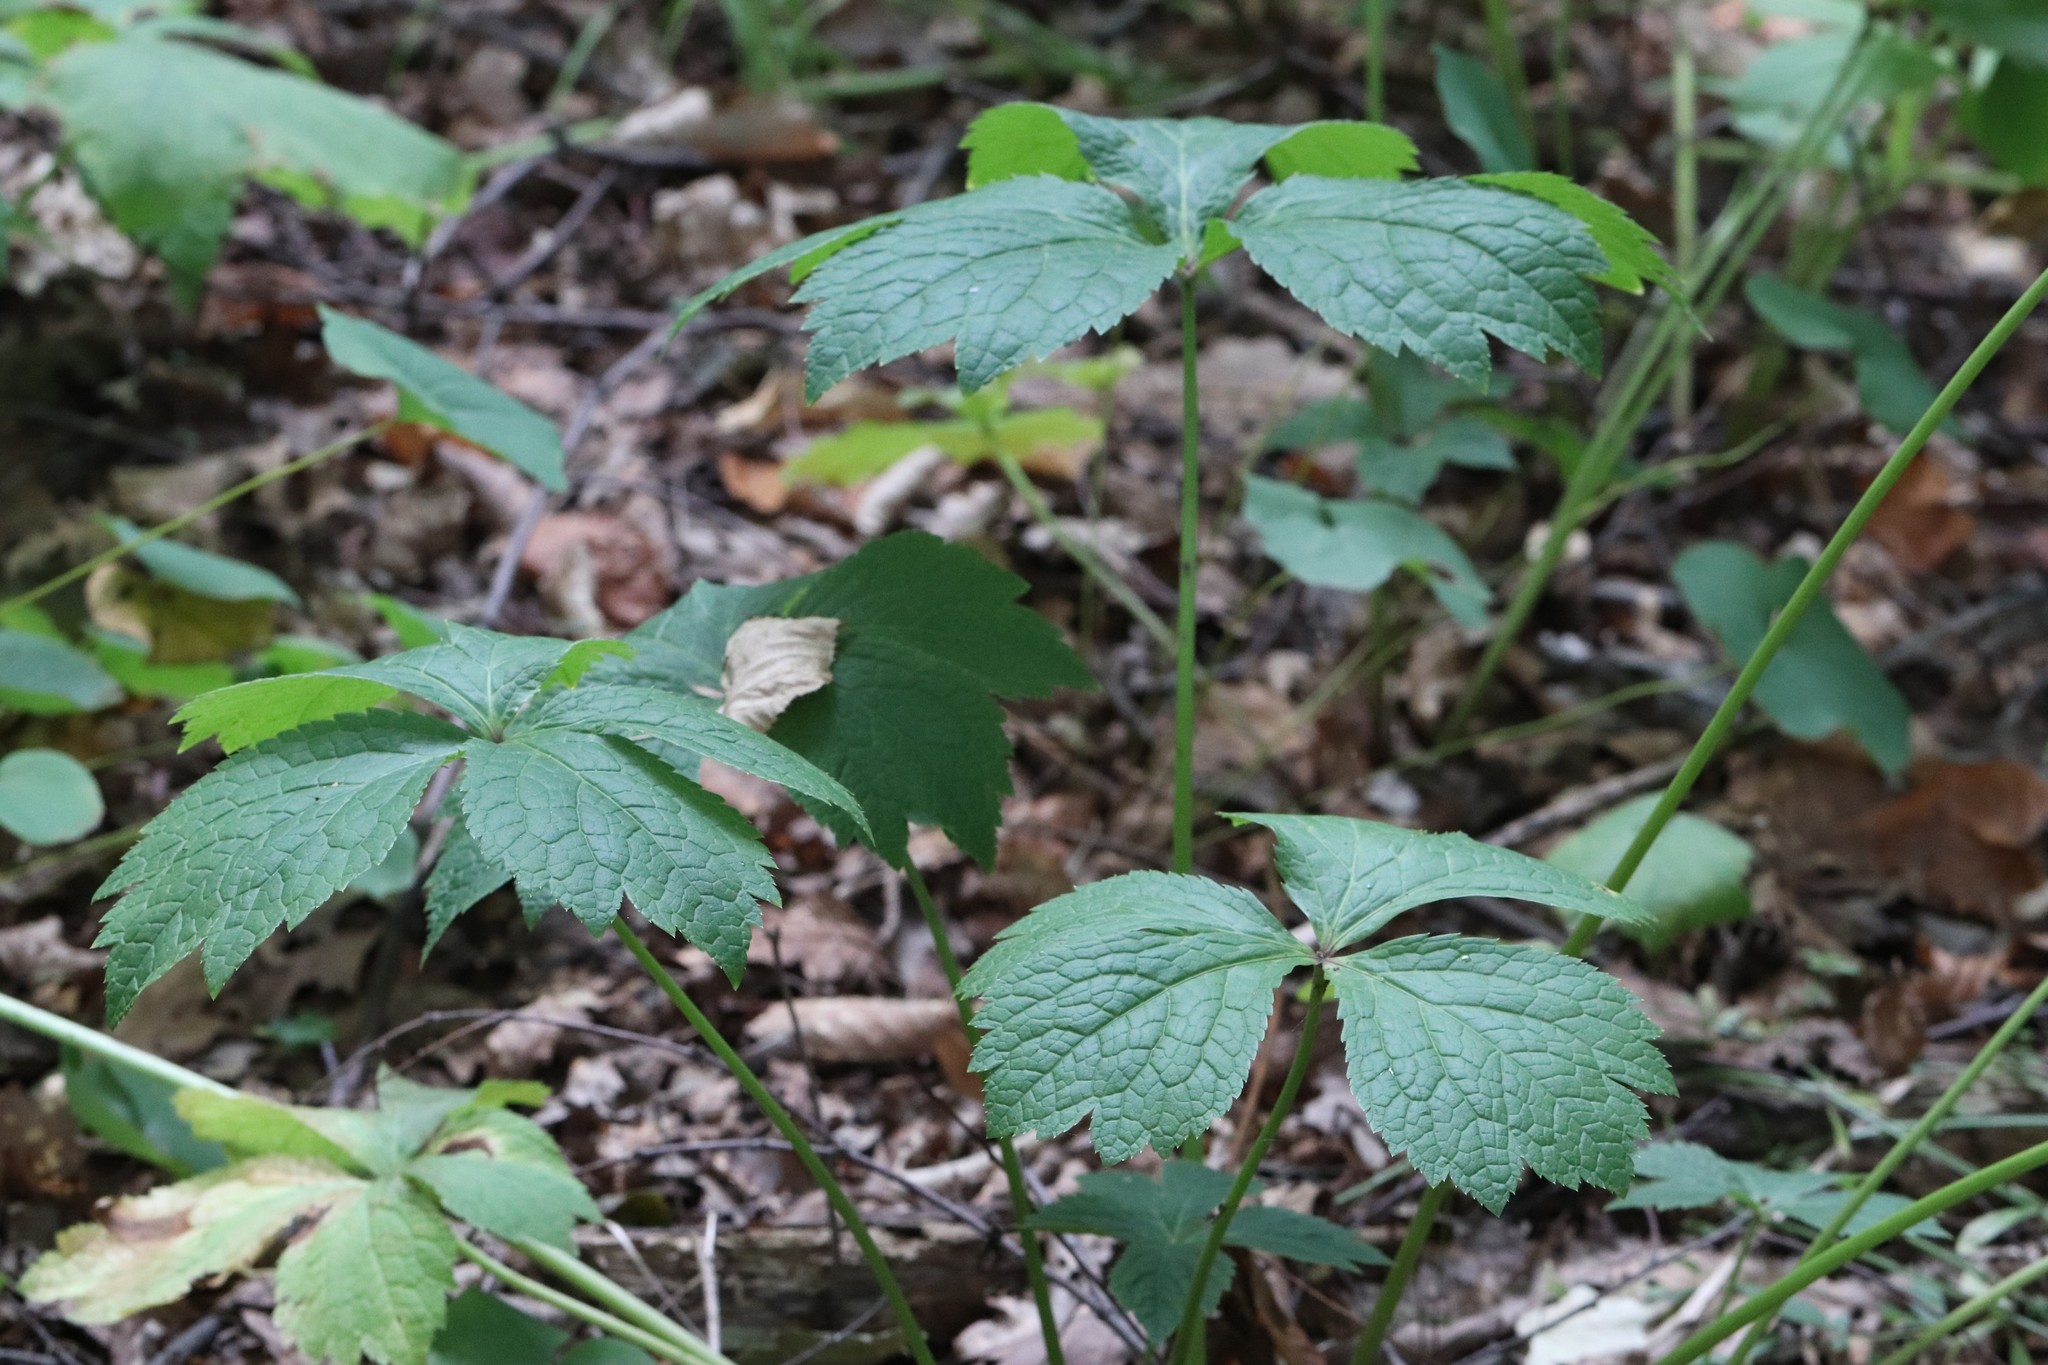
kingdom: Plantae
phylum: Tracheophyta
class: Magnoliopsida
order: Apiales
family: Apiaceae
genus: Sanicula
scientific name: Sanicula rubriflora
